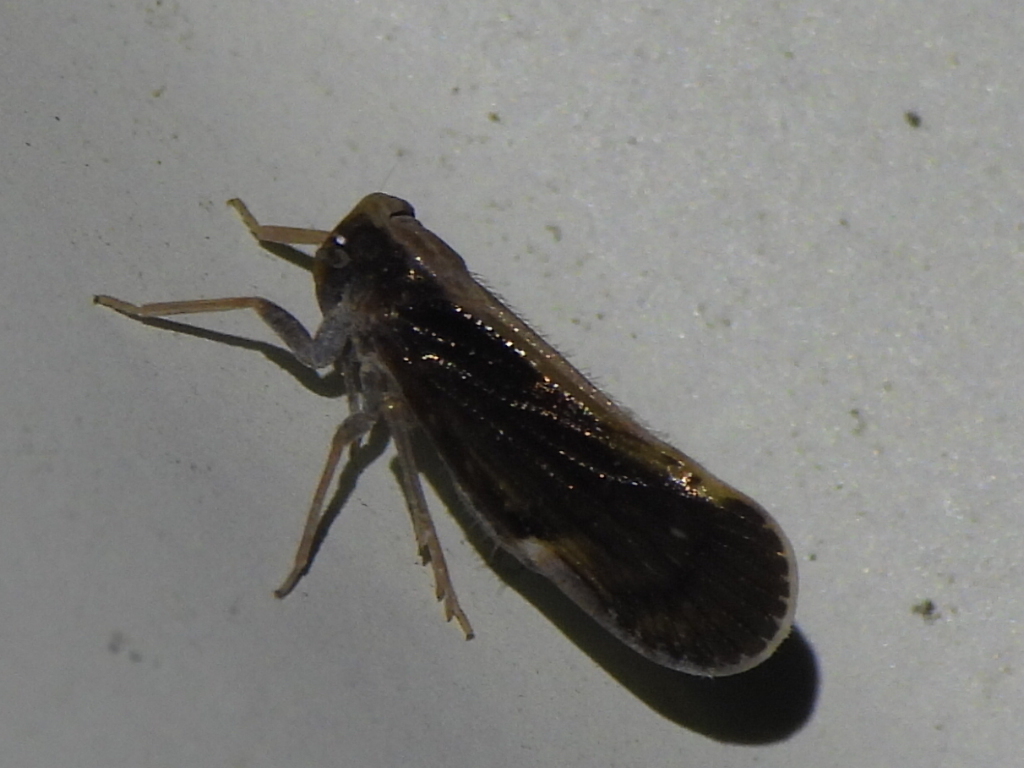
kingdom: Animalia
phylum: Arthropoda
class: Insecta
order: Hemiptera
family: Cixiidae
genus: Pintalia
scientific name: Pintalia delicata
